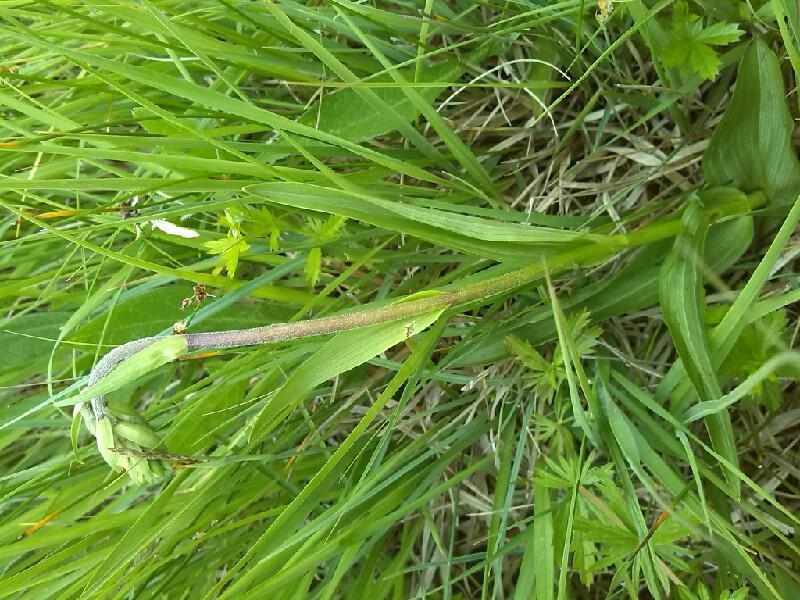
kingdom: Plantae
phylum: Tracheophyta
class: Liliopsida
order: Asparagales
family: Orchidaceae
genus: Epipactis
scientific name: Epipactis palustris
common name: Marsh helleborine
